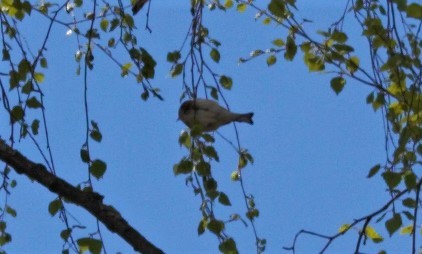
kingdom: Animalia
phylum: Chordata
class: Aves
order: Passeriformes
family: Fringillidae
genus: Carduelis
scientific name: Carduelis carduelis
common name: European goldfinch
